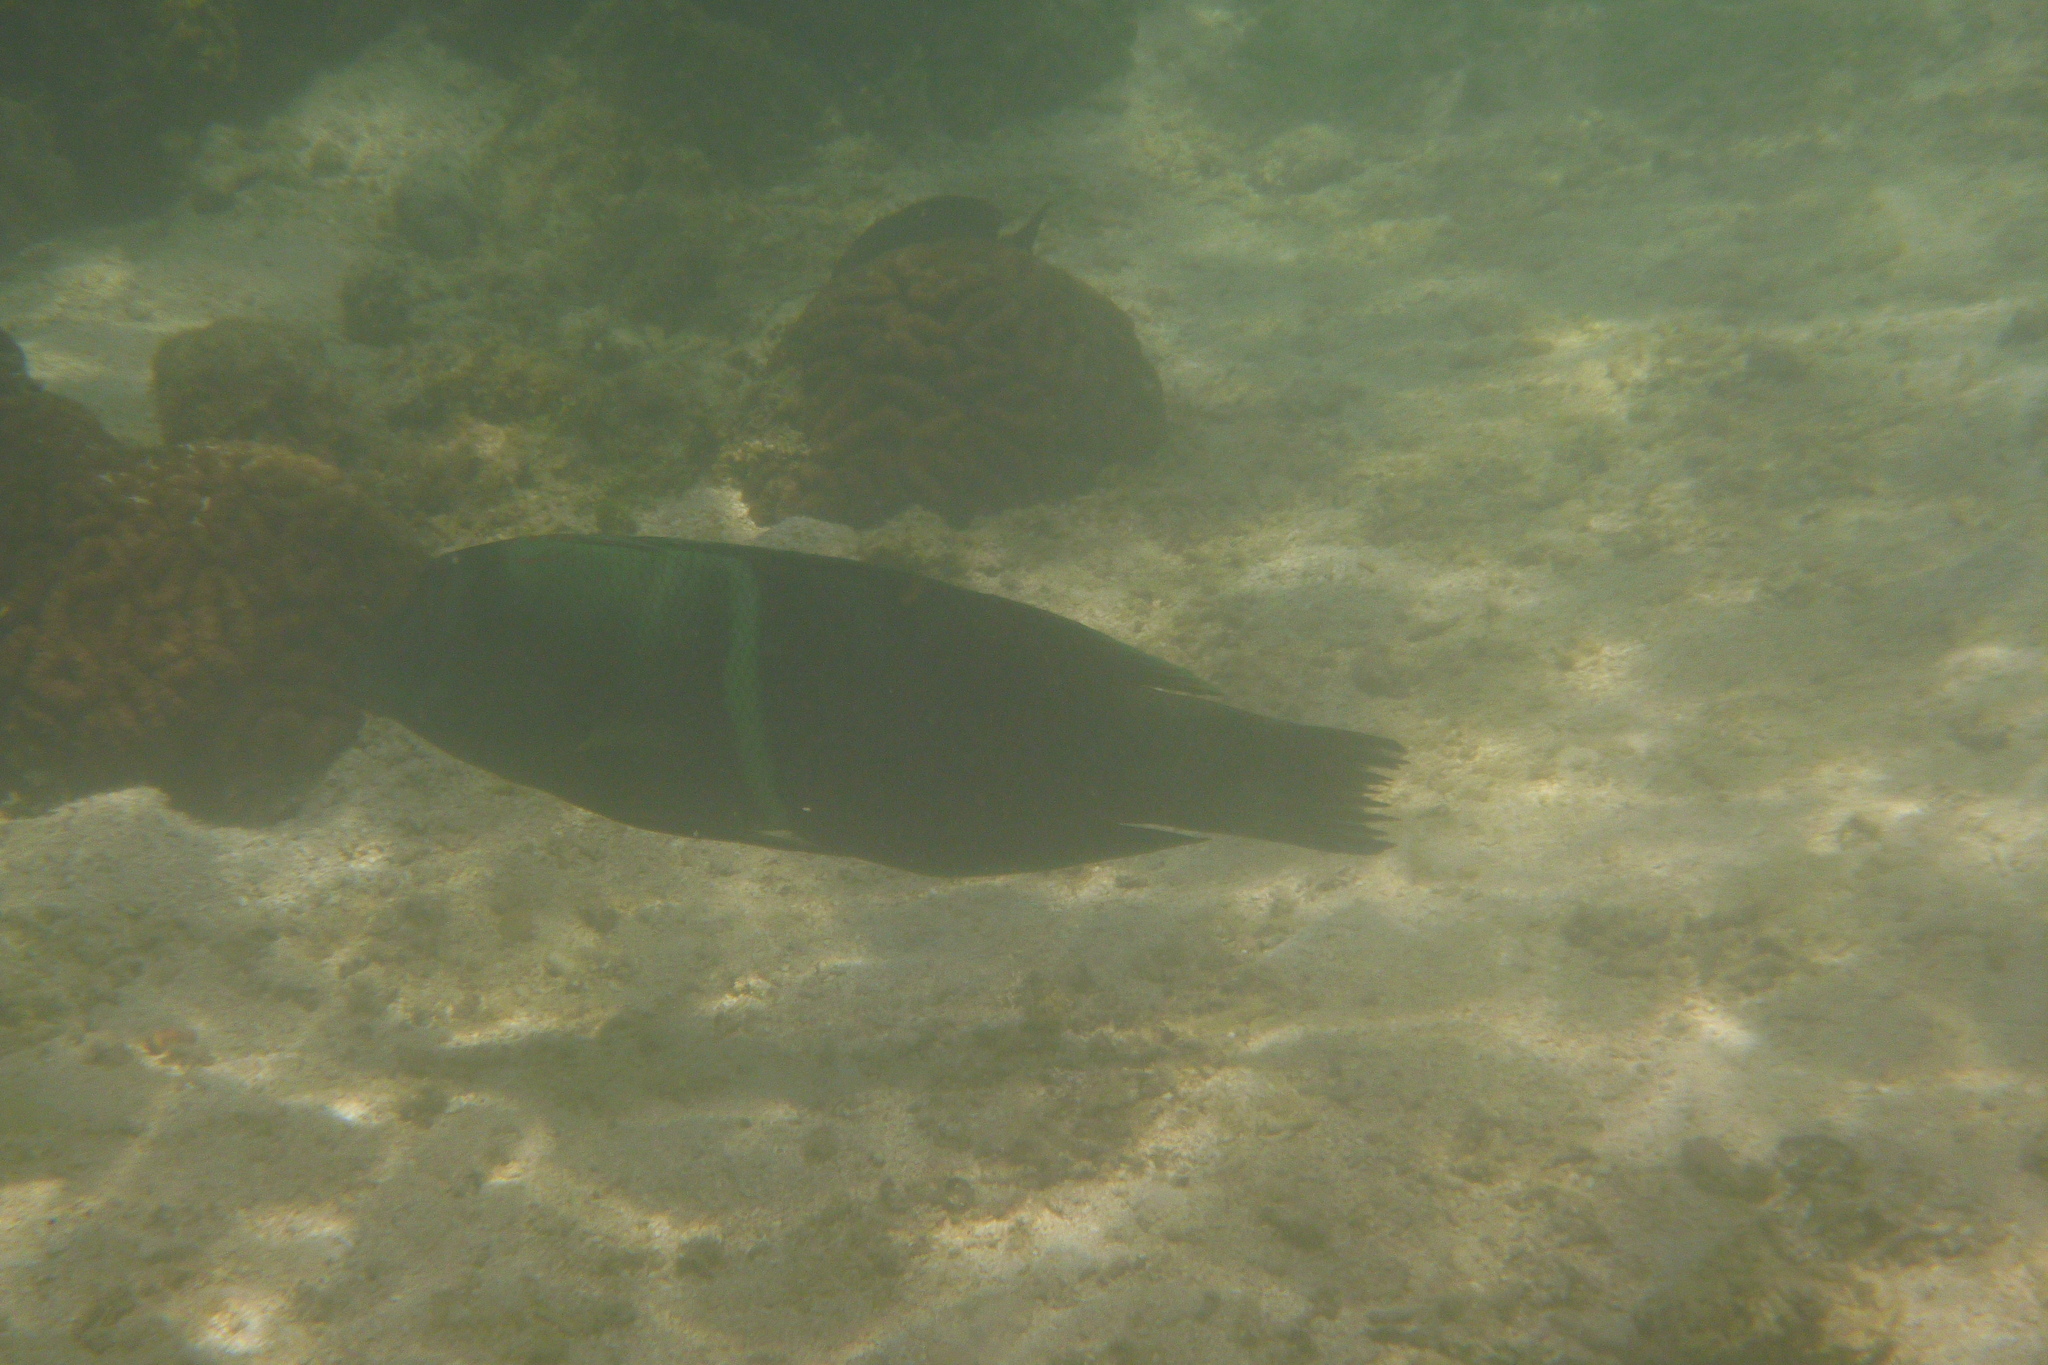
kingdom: Animalia
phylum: Chordata
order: Perciformes
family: Labridae
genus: Coris
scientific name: Coris aygula
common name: Clown coris
